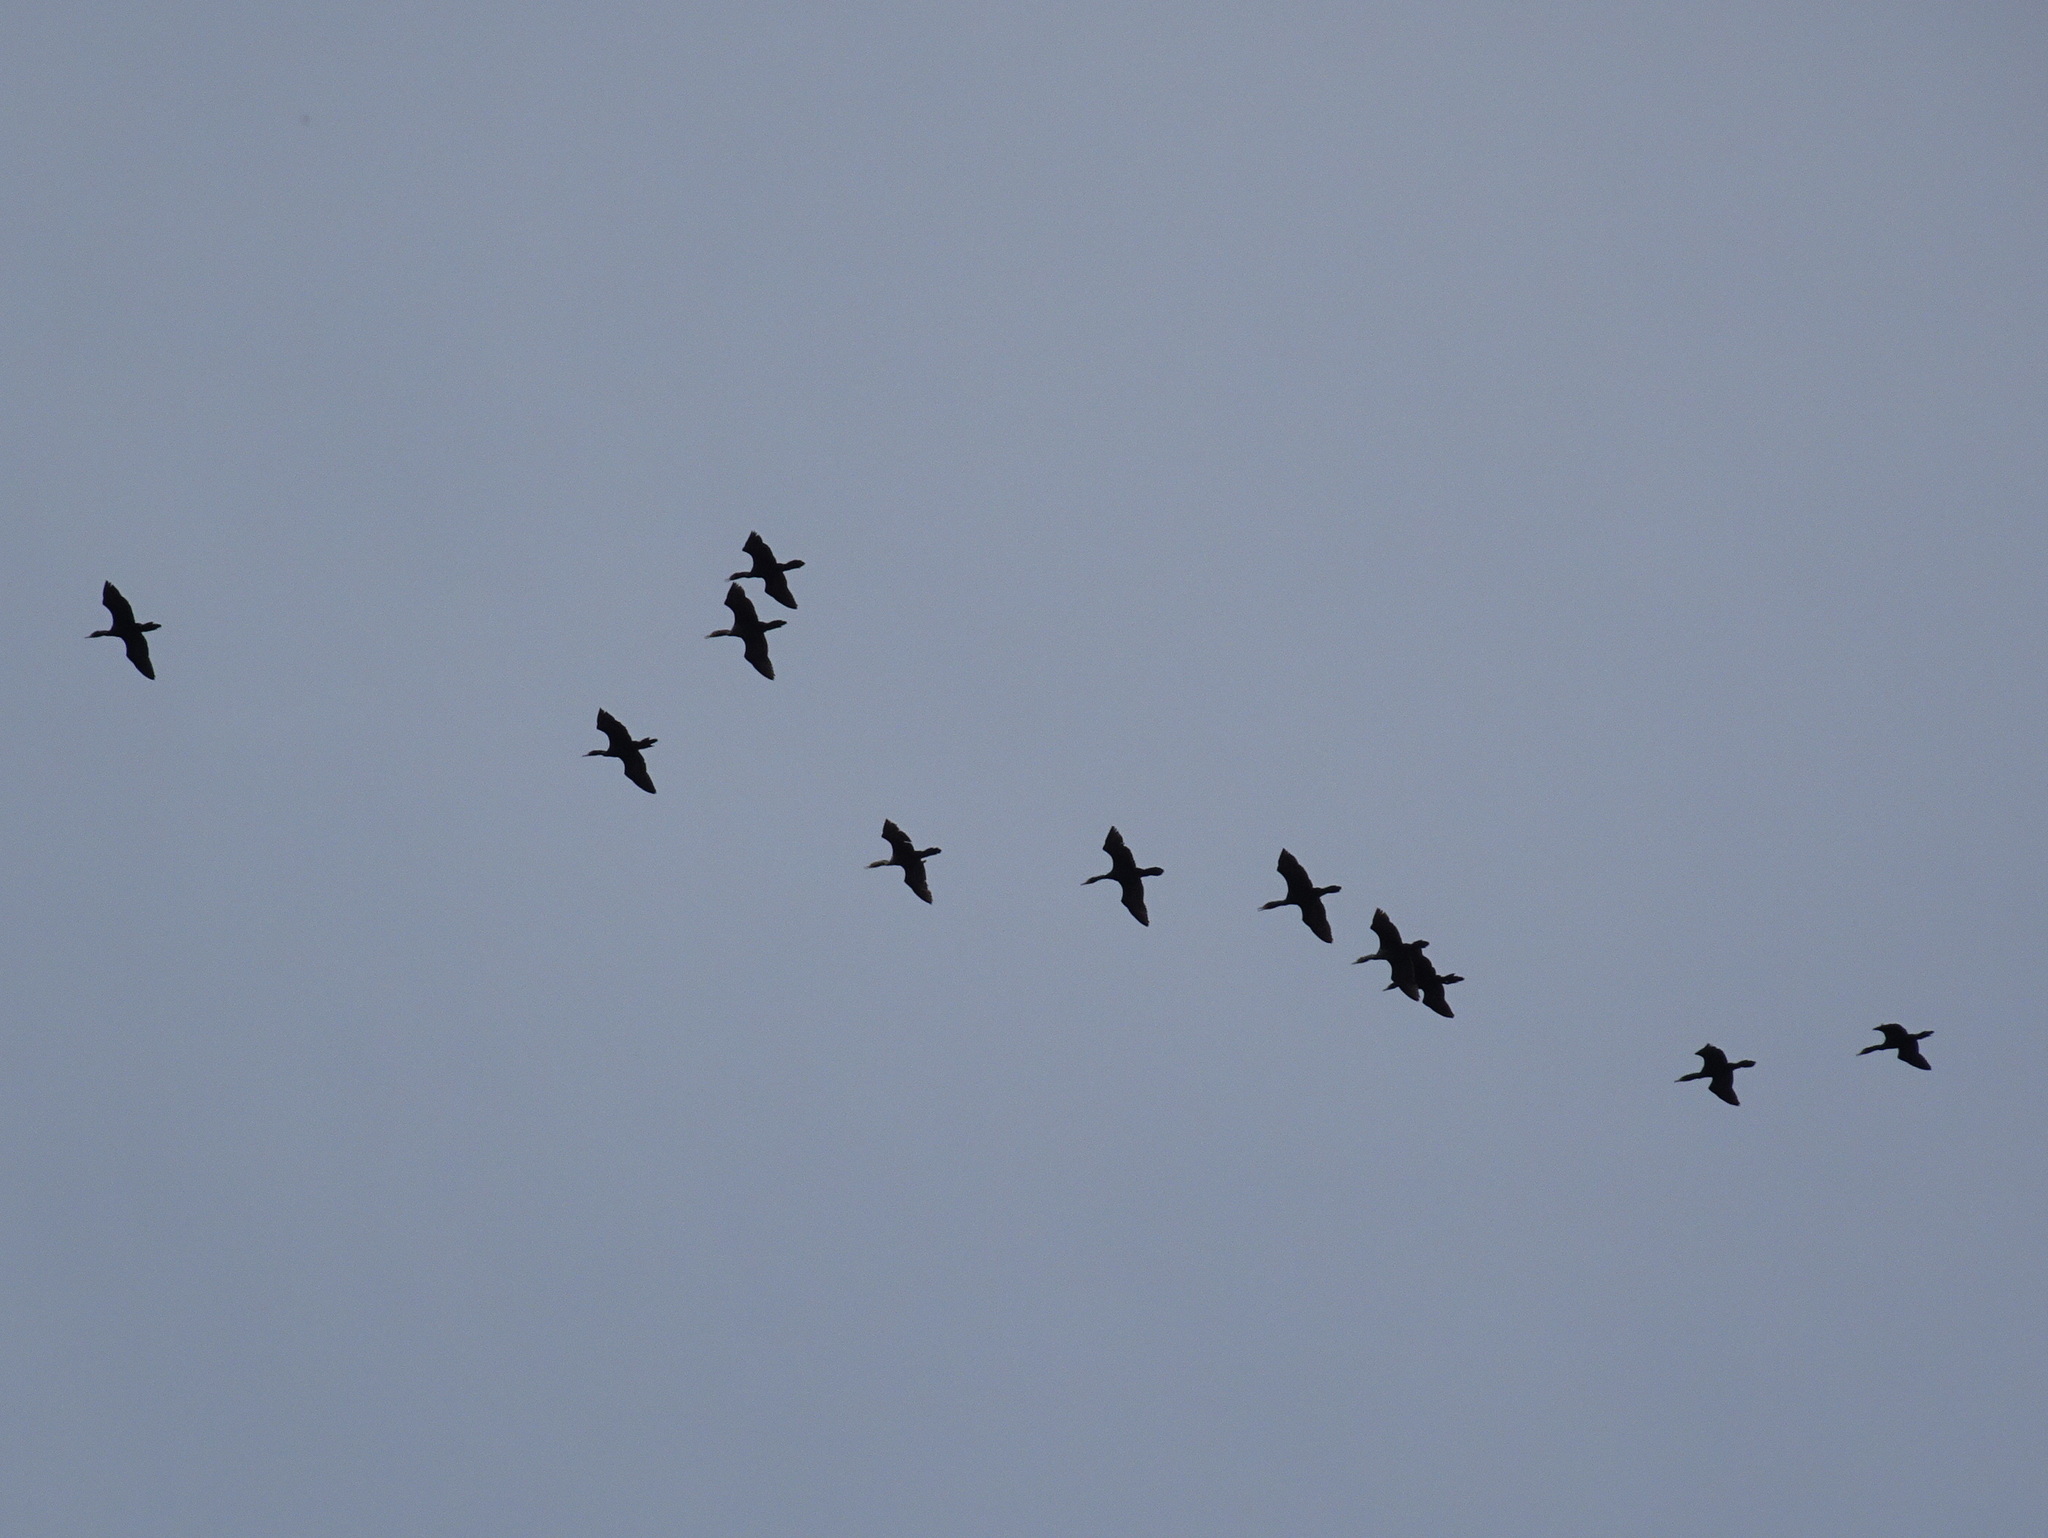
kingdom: Animalia
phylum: Chordata
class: Aves
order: Suliformes
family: Phalacrocoracidae
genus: Phalacrocorax
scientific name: Phalacrocorax auritus
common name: Double-crested cormorant
